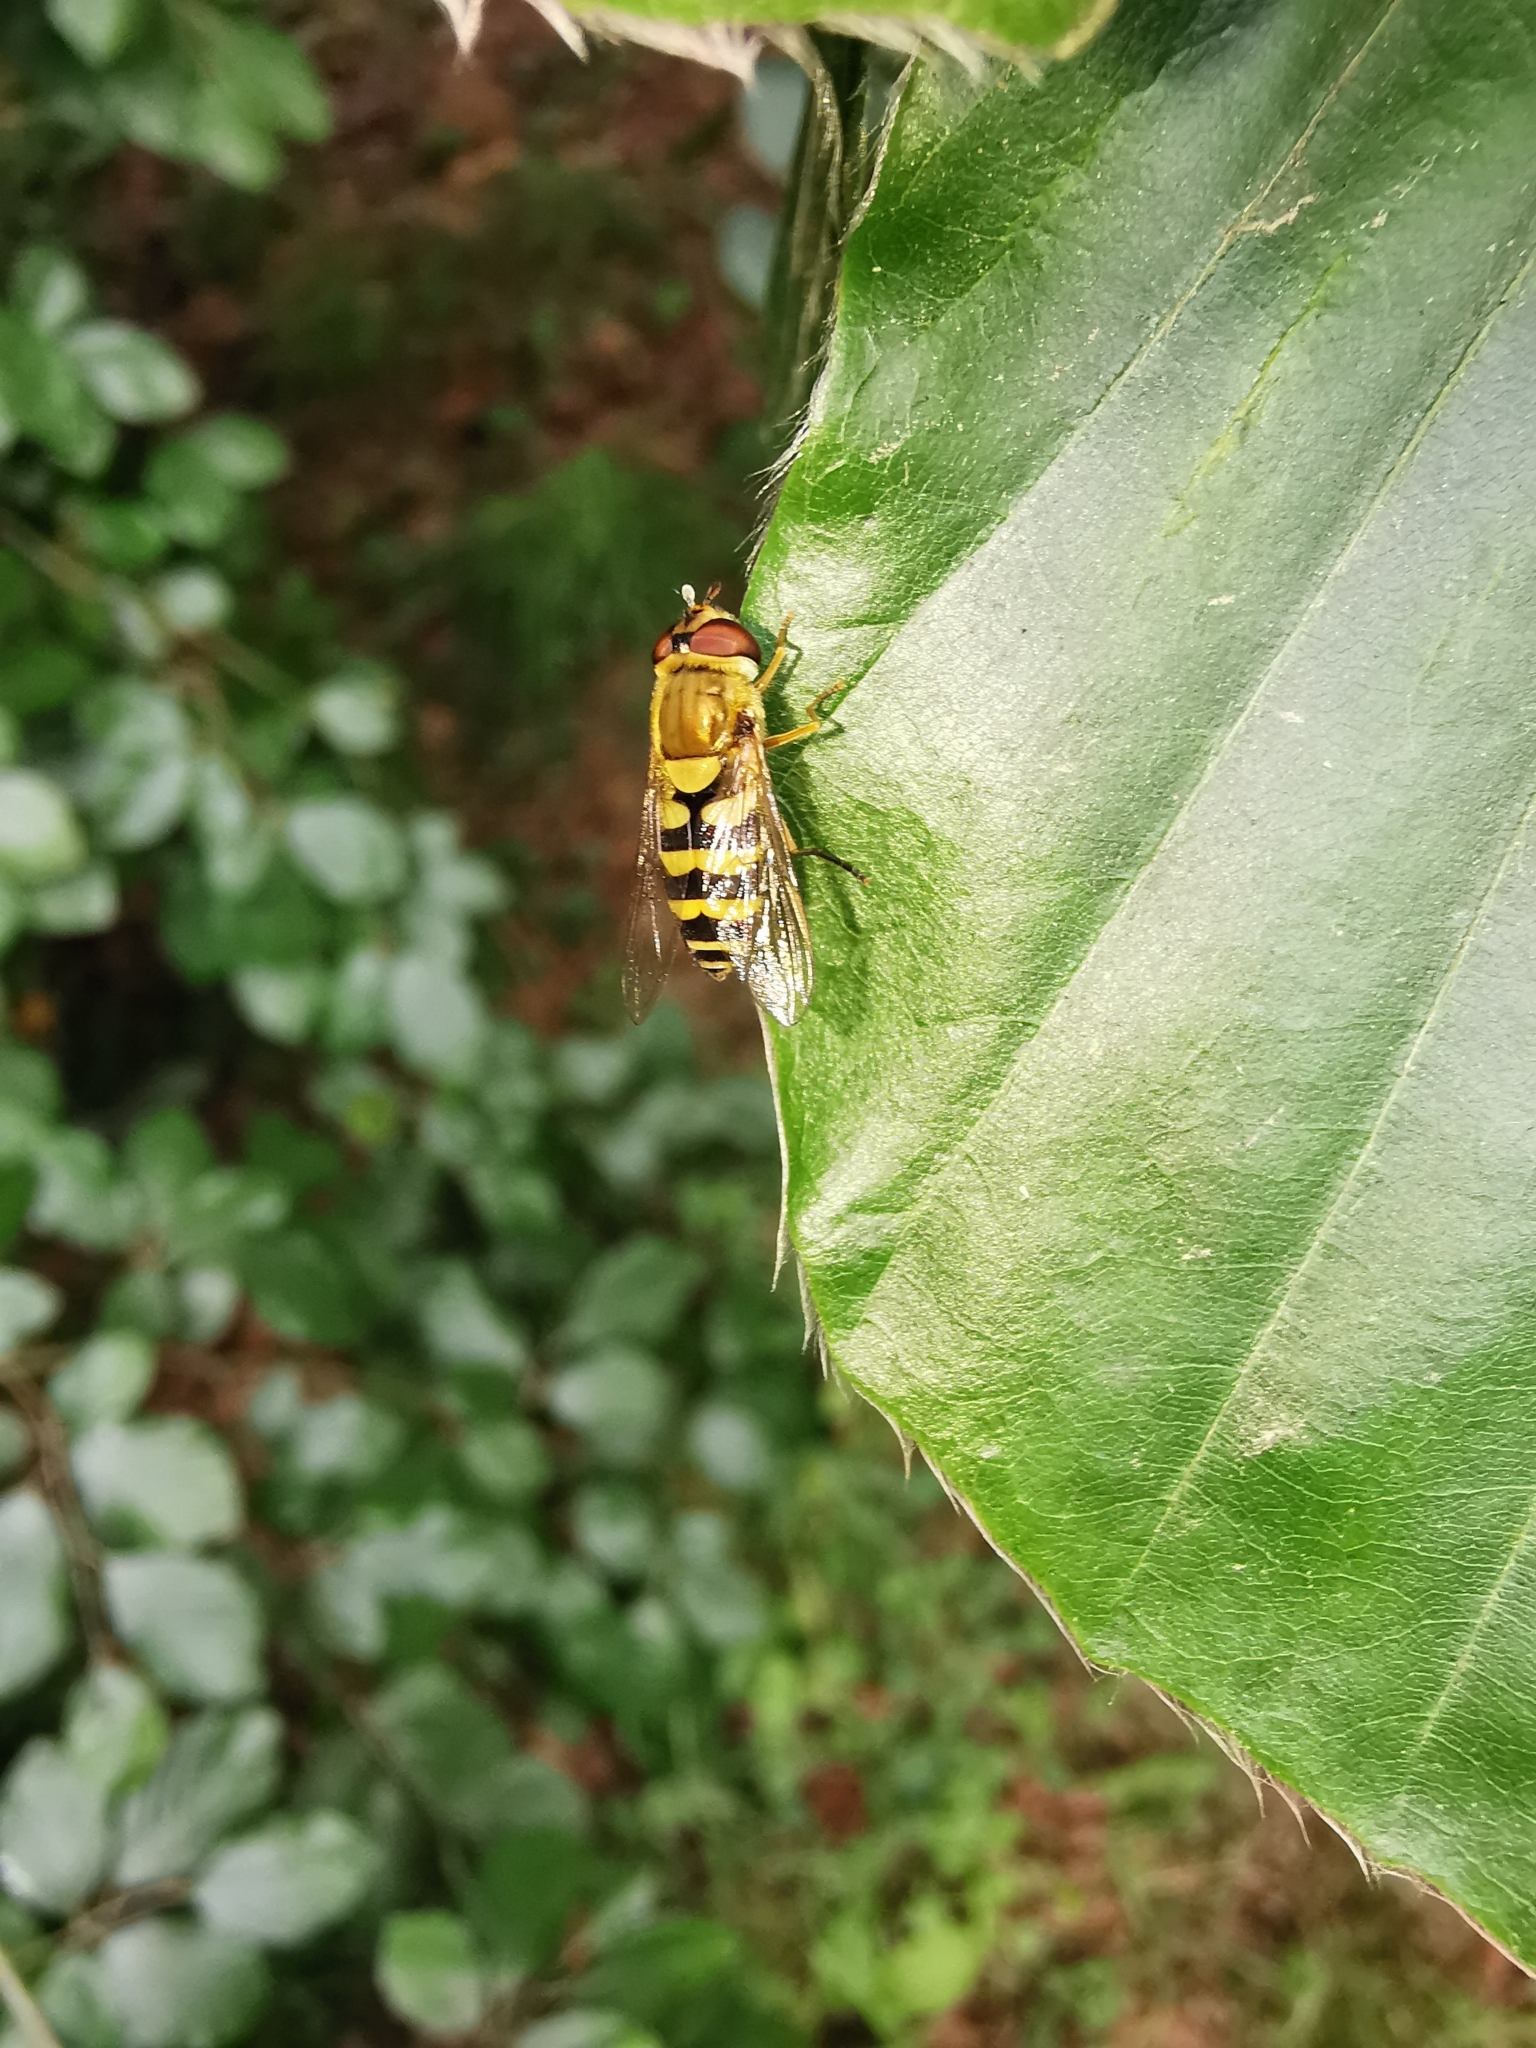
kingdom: Animalia
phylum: Arthropoda
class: Insecta
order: Diptera
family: Syrphidae
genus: Syrphus
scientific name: Syrphus
